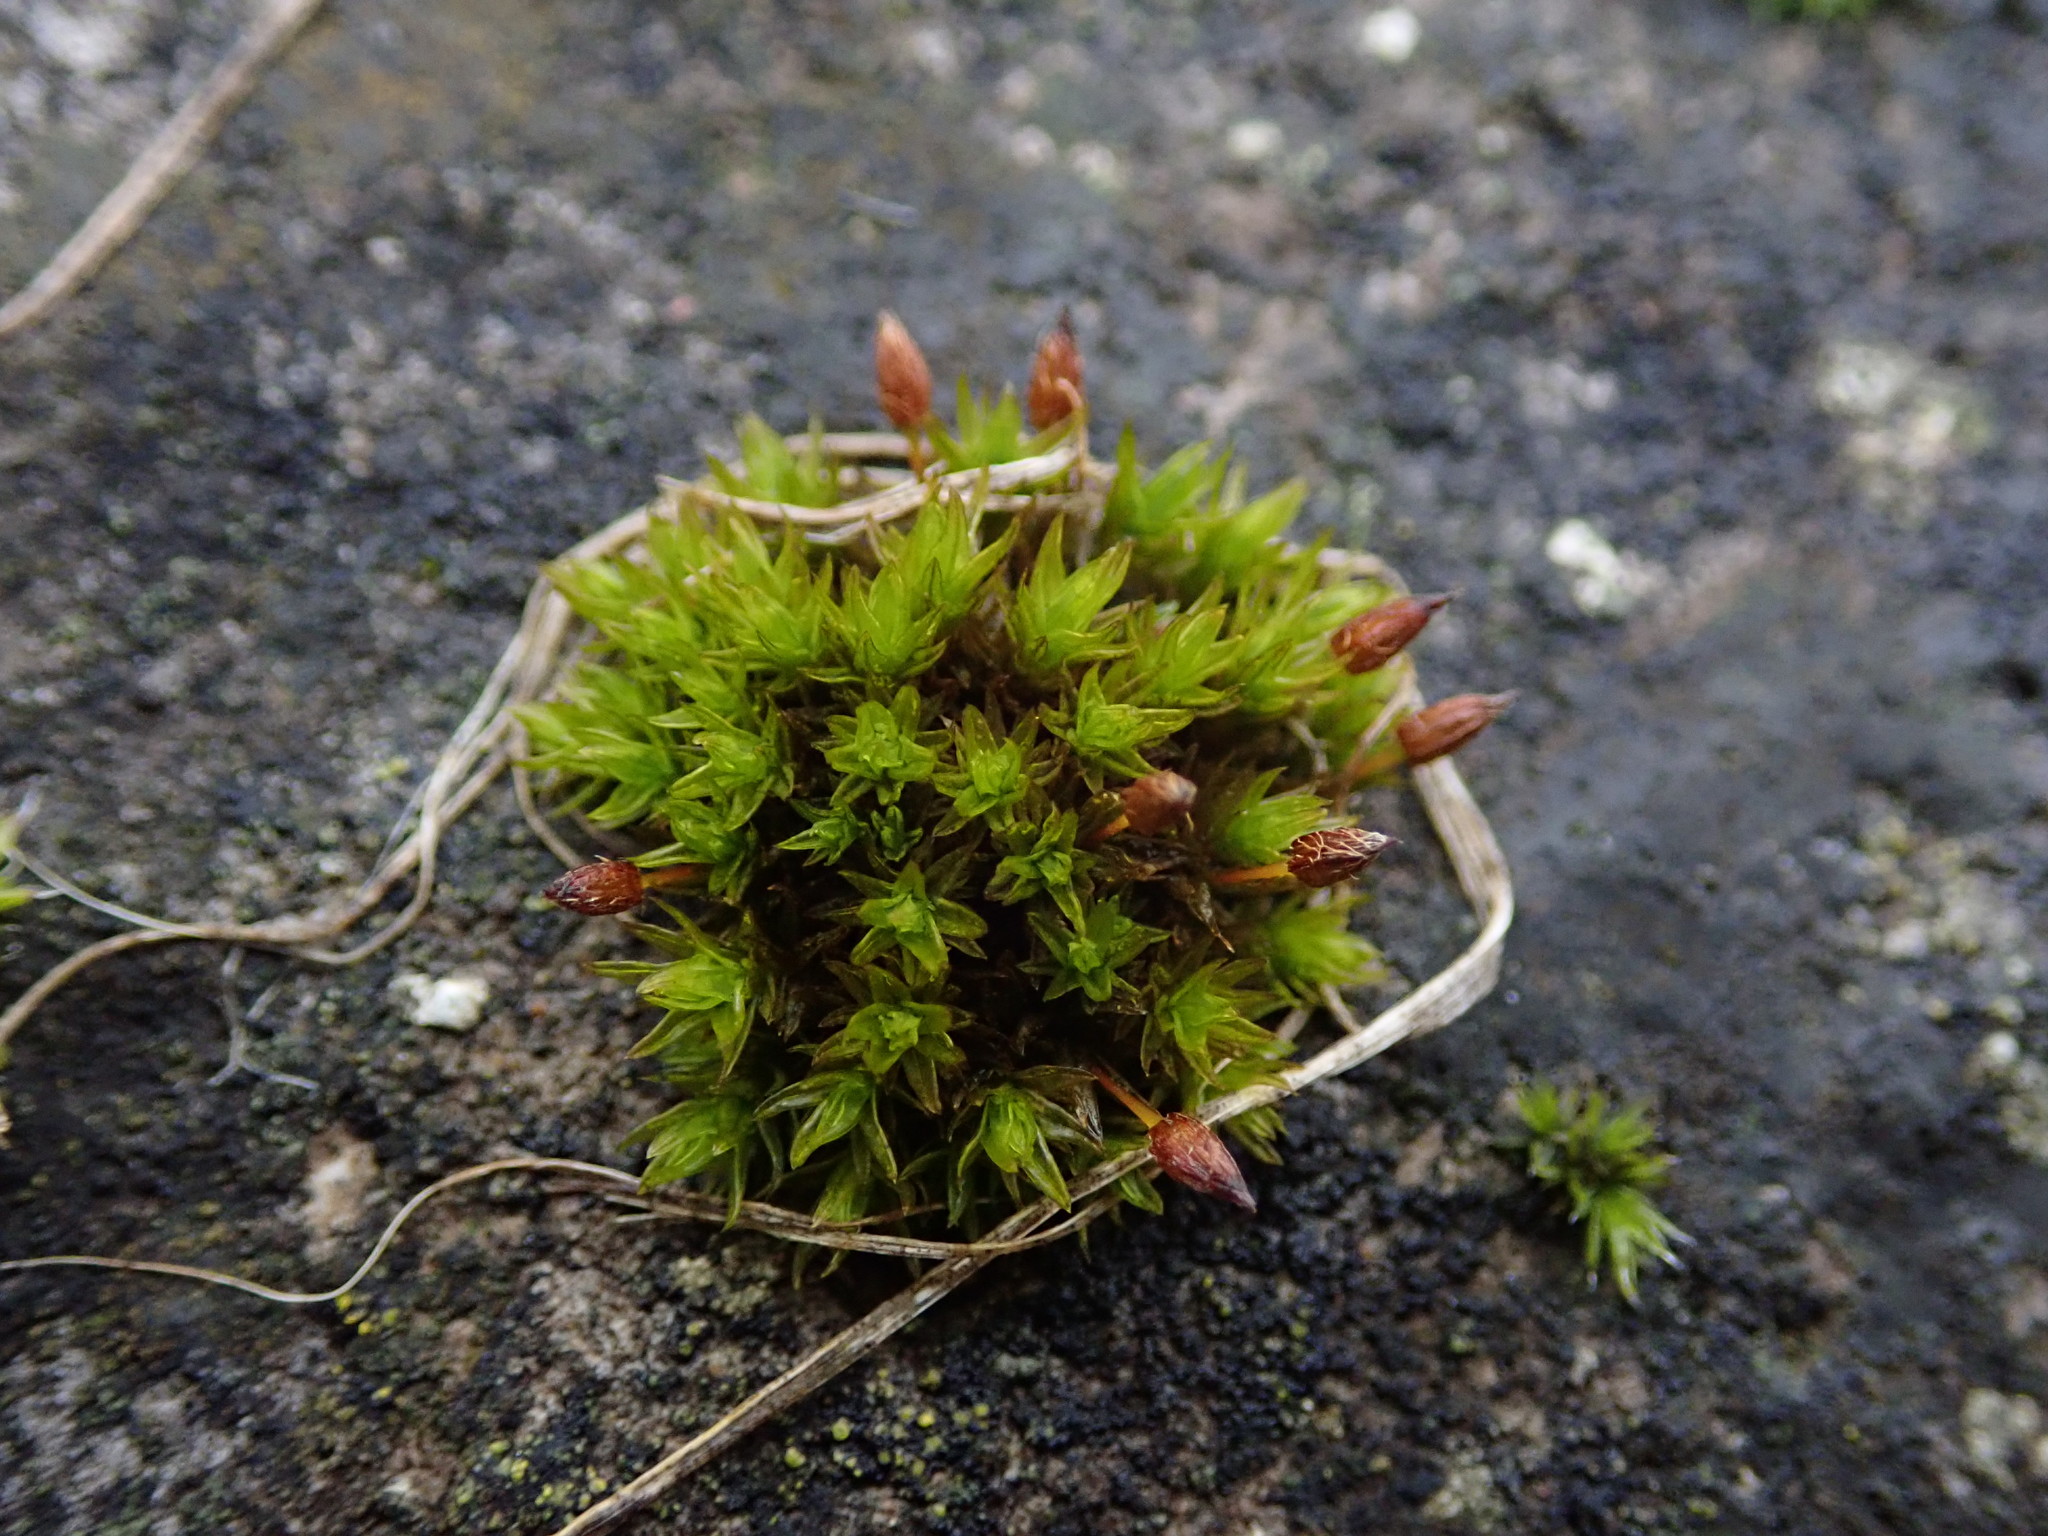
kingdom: Plantae
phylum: Bryophyta
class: Bryopsida
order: Orthotrichales
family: Orthotrichaceae
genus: Orthotrichum
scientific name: Orthotrichum anomalum
